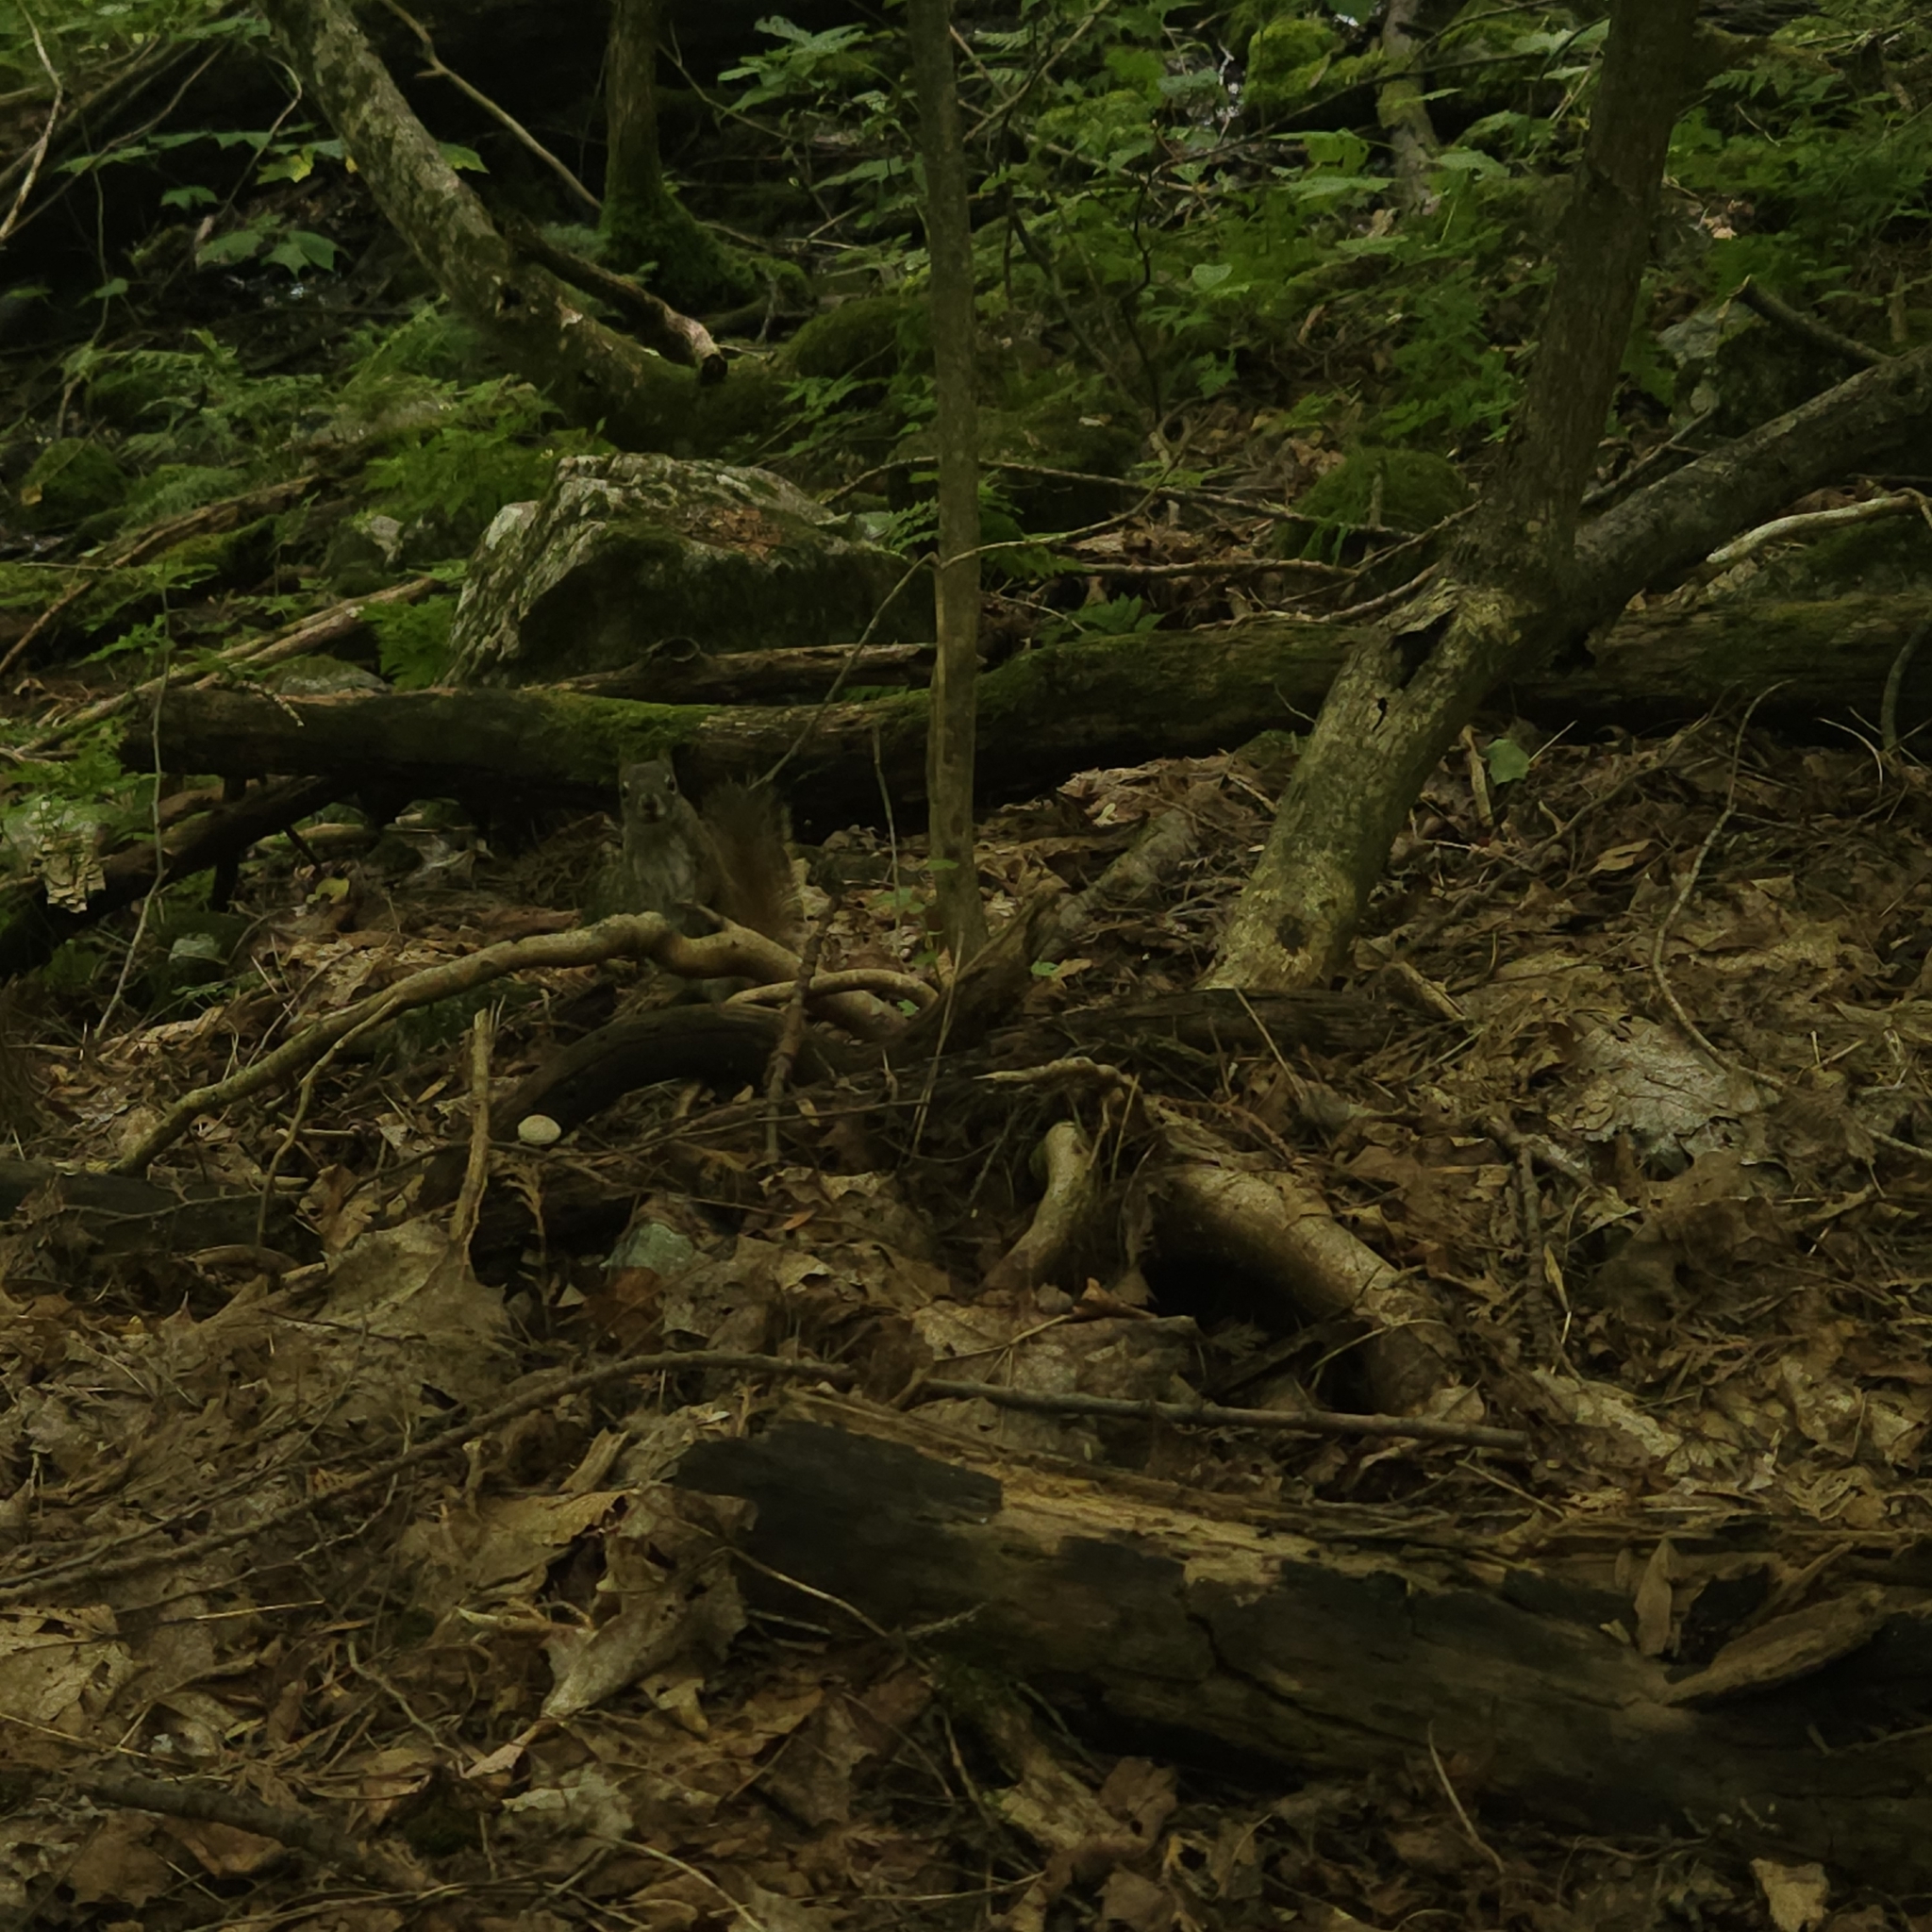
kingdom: Animalia
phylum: Chordata
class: Mammalia
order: Rodentia
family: Sciuridae
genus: Tamiasciurus
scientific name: Tamiasciurus hudsonicus
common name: Red squirrel
